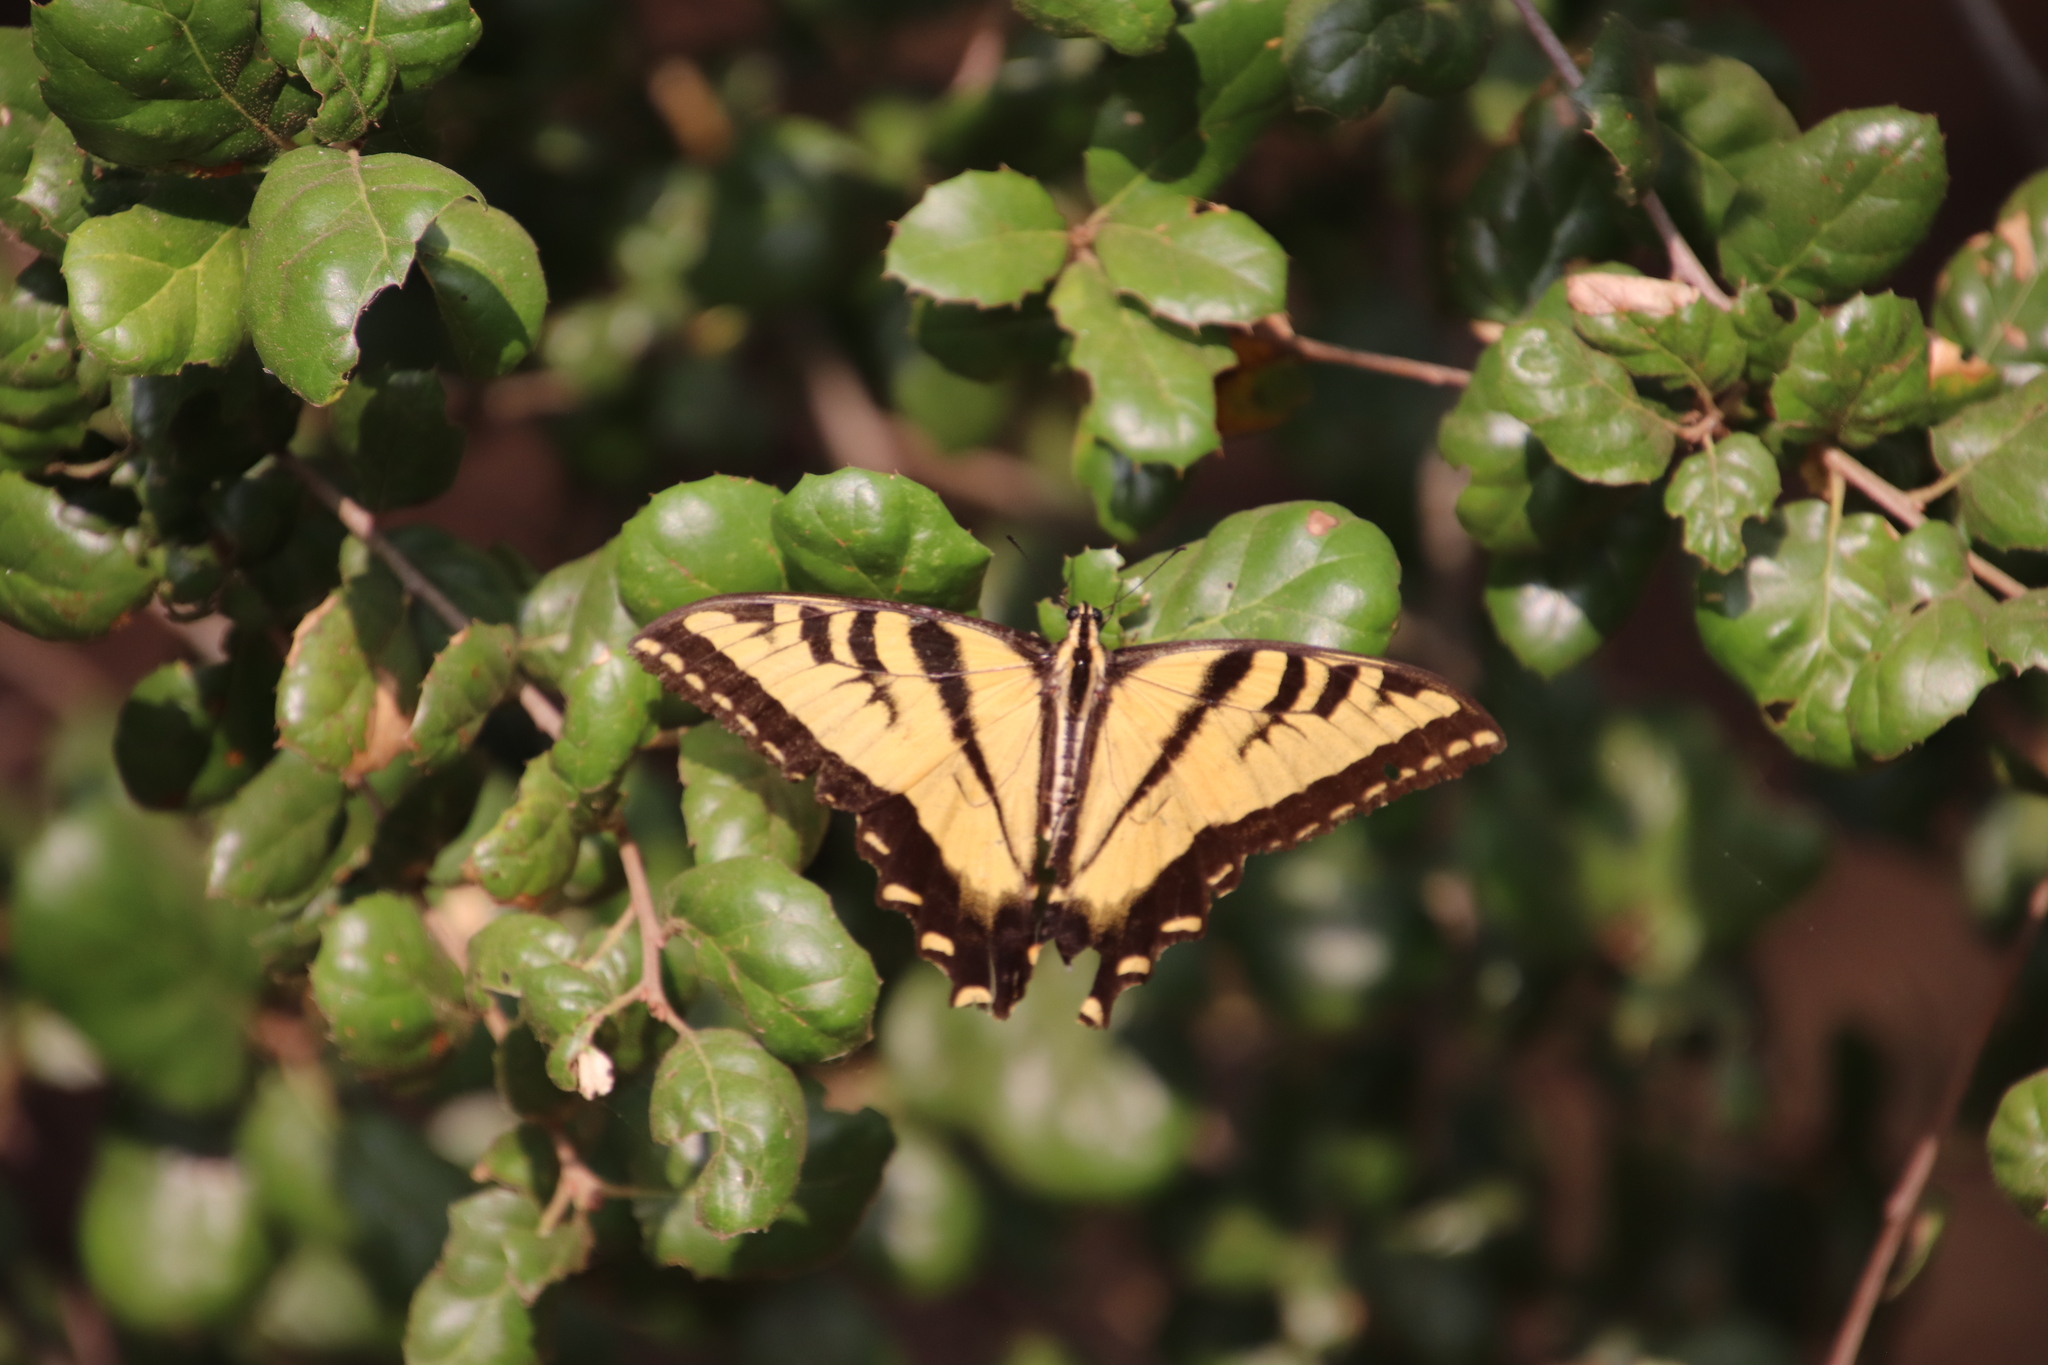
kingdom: Animalia
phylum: Arthropoda
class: Insecta
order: Lepidoptera
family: Papilionidae
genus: Papilio
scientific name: Papilio rutulus
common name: Western tiger swallowtail
